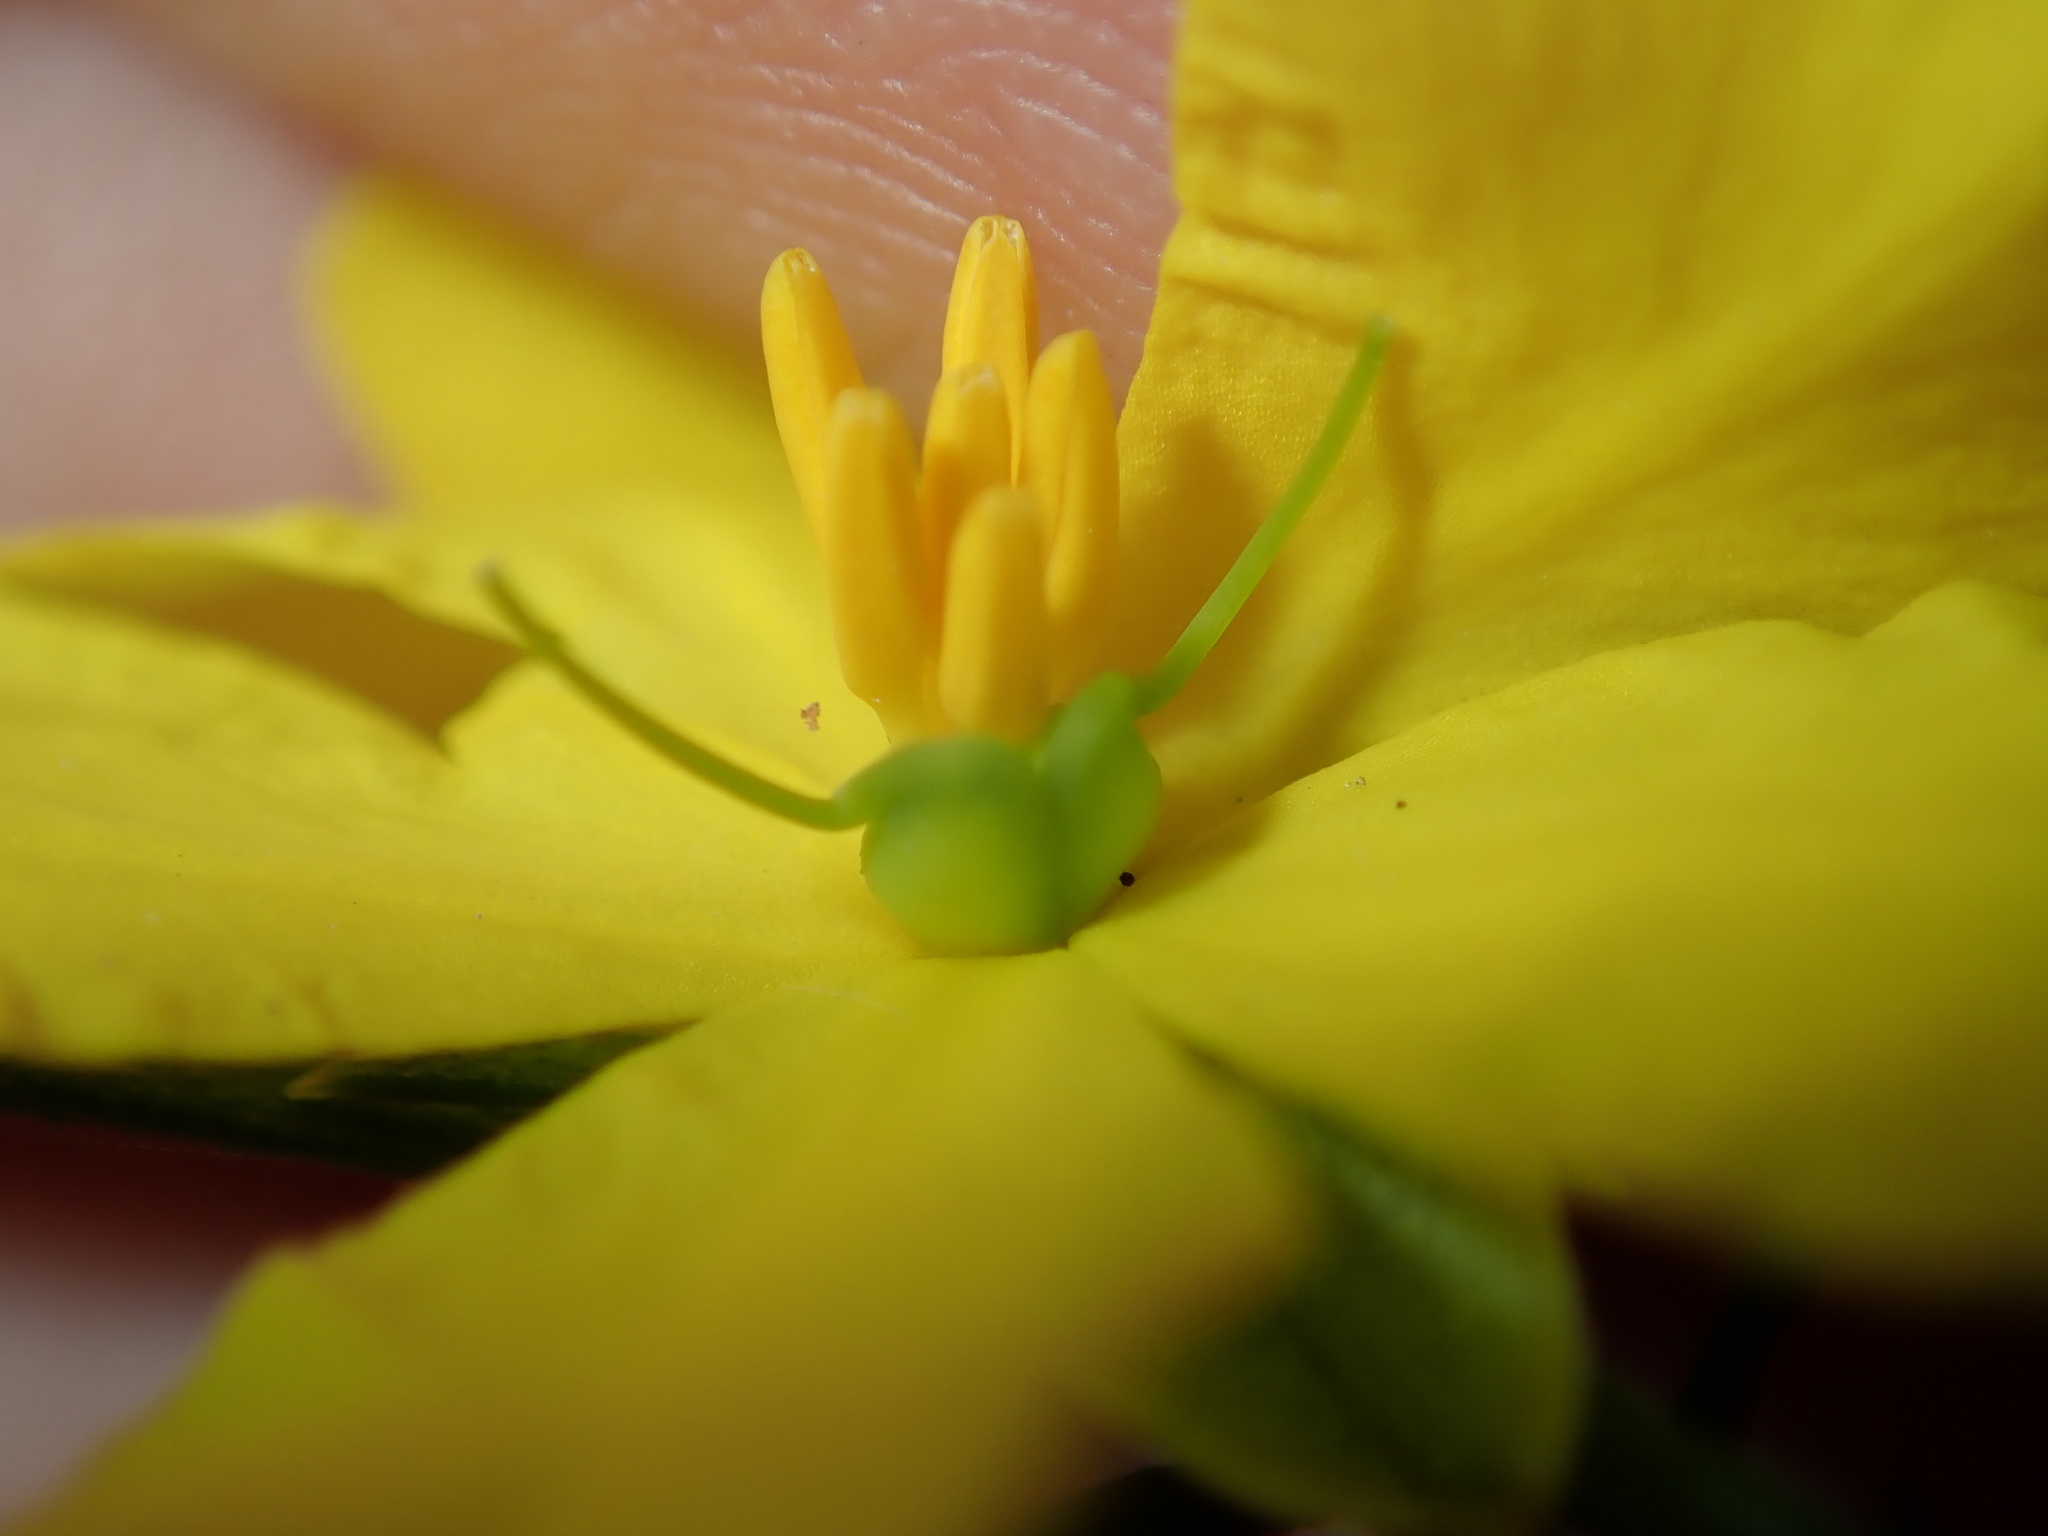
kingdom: Plantae
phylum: Tracheophyta
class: Magnoliopsida
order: Dilleniales
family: Dilleniaceae
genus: Hibbertia
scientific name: Hibbertia cistiflora
